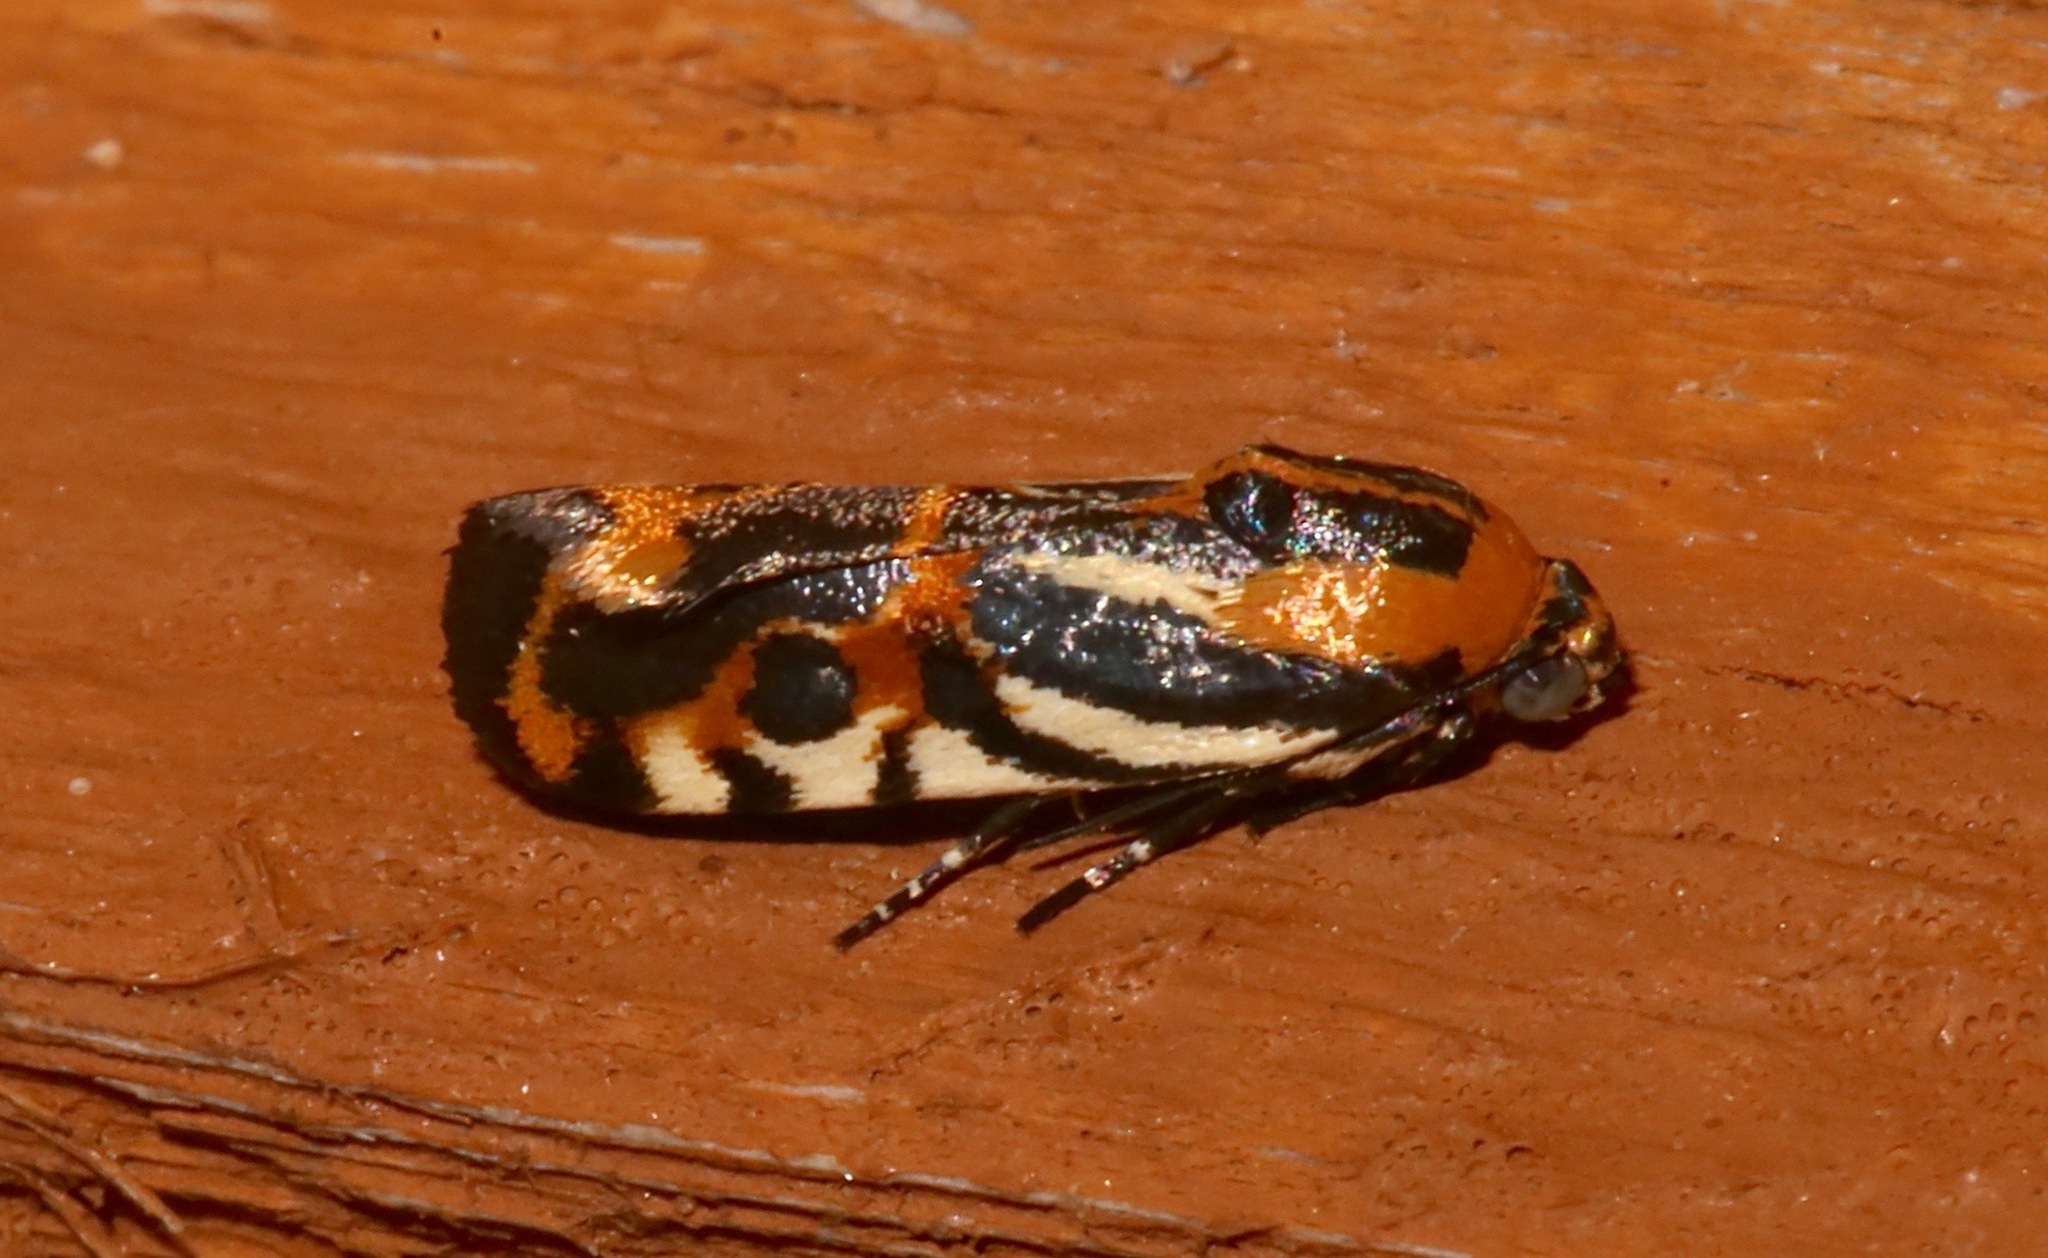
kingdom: Animalia
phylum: Arthropoda
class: Insecta
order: Lepidoptera
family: Noctuidae
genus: Acontia
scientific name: Acontia onagrus
